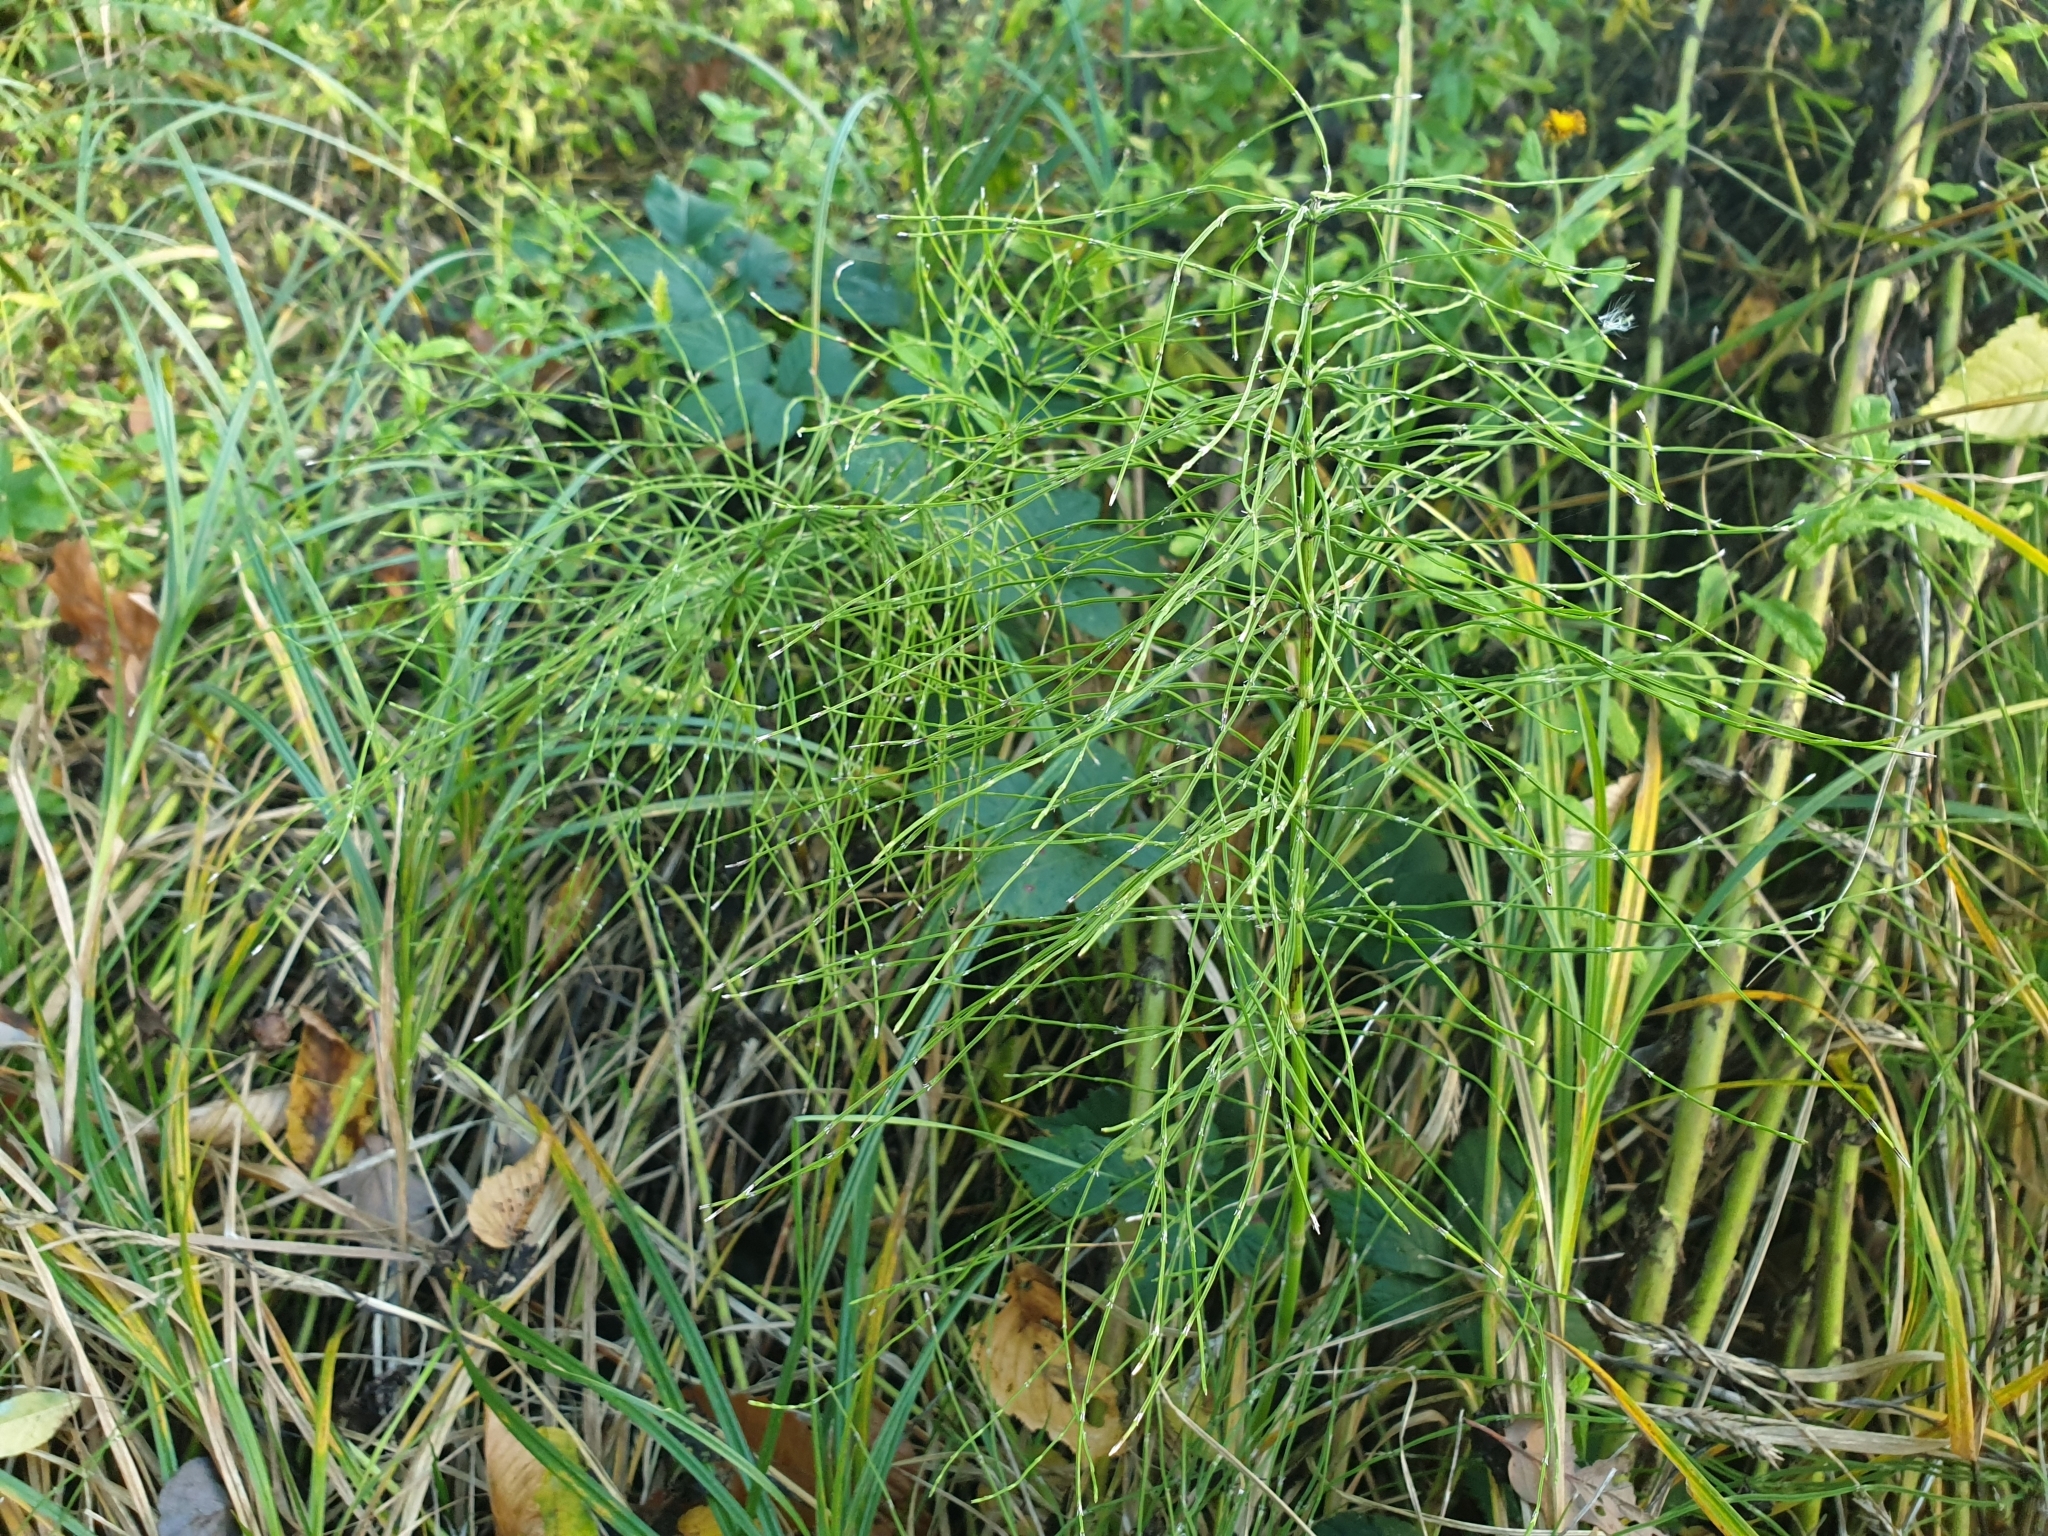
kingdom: Plantae
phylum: Tracheophyta
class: Polypodiopsida
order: Equisetales
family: Equisetaceae
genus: Equisetum
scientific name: Equisetum arvense
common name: Field horsetail
